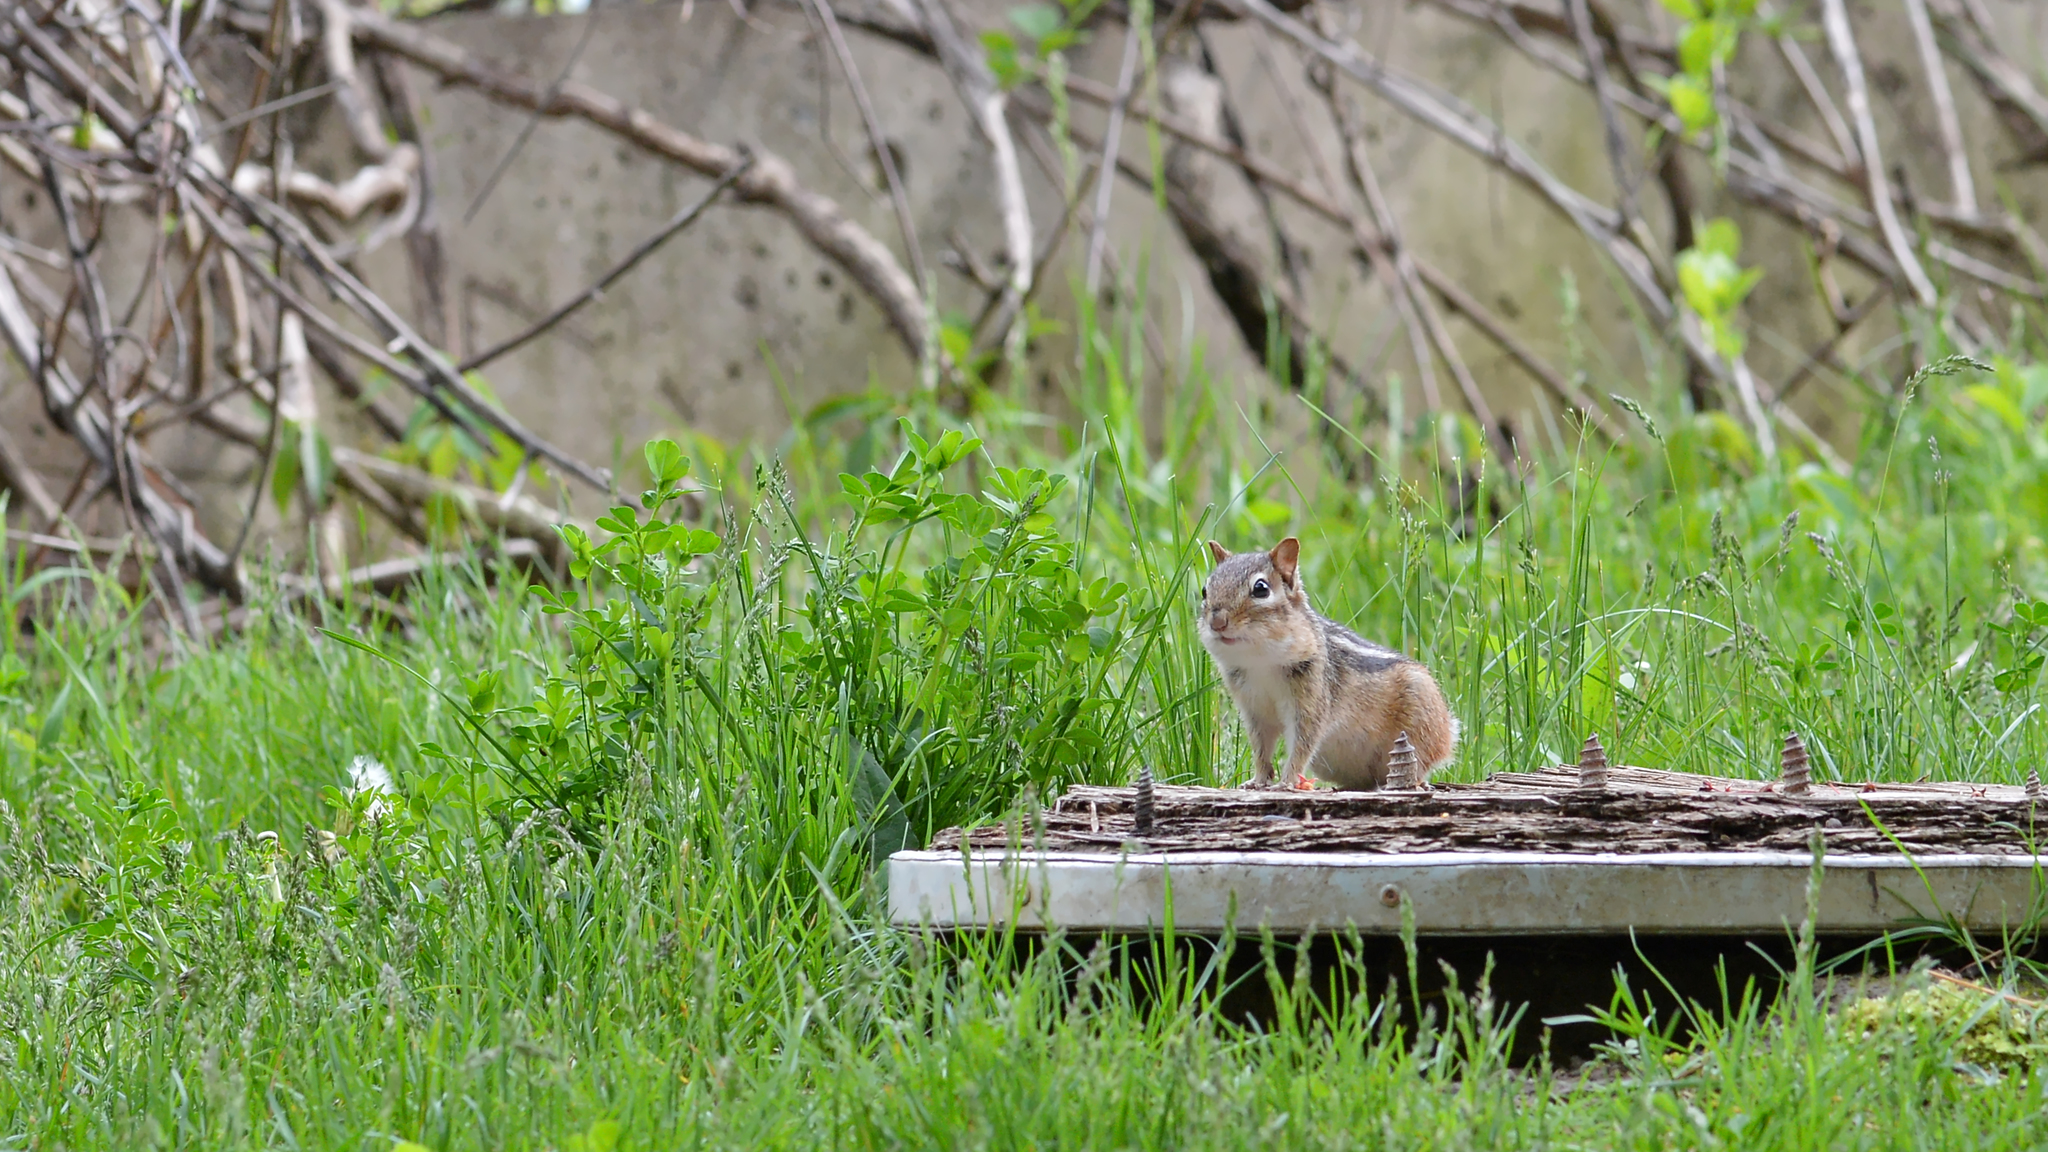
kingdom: Animalia
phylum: Chordata
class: Mammalia
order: Rodentia
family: Sciuridae
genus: Tamias
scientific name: Tamias striatus
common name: Eastern chipmunk
